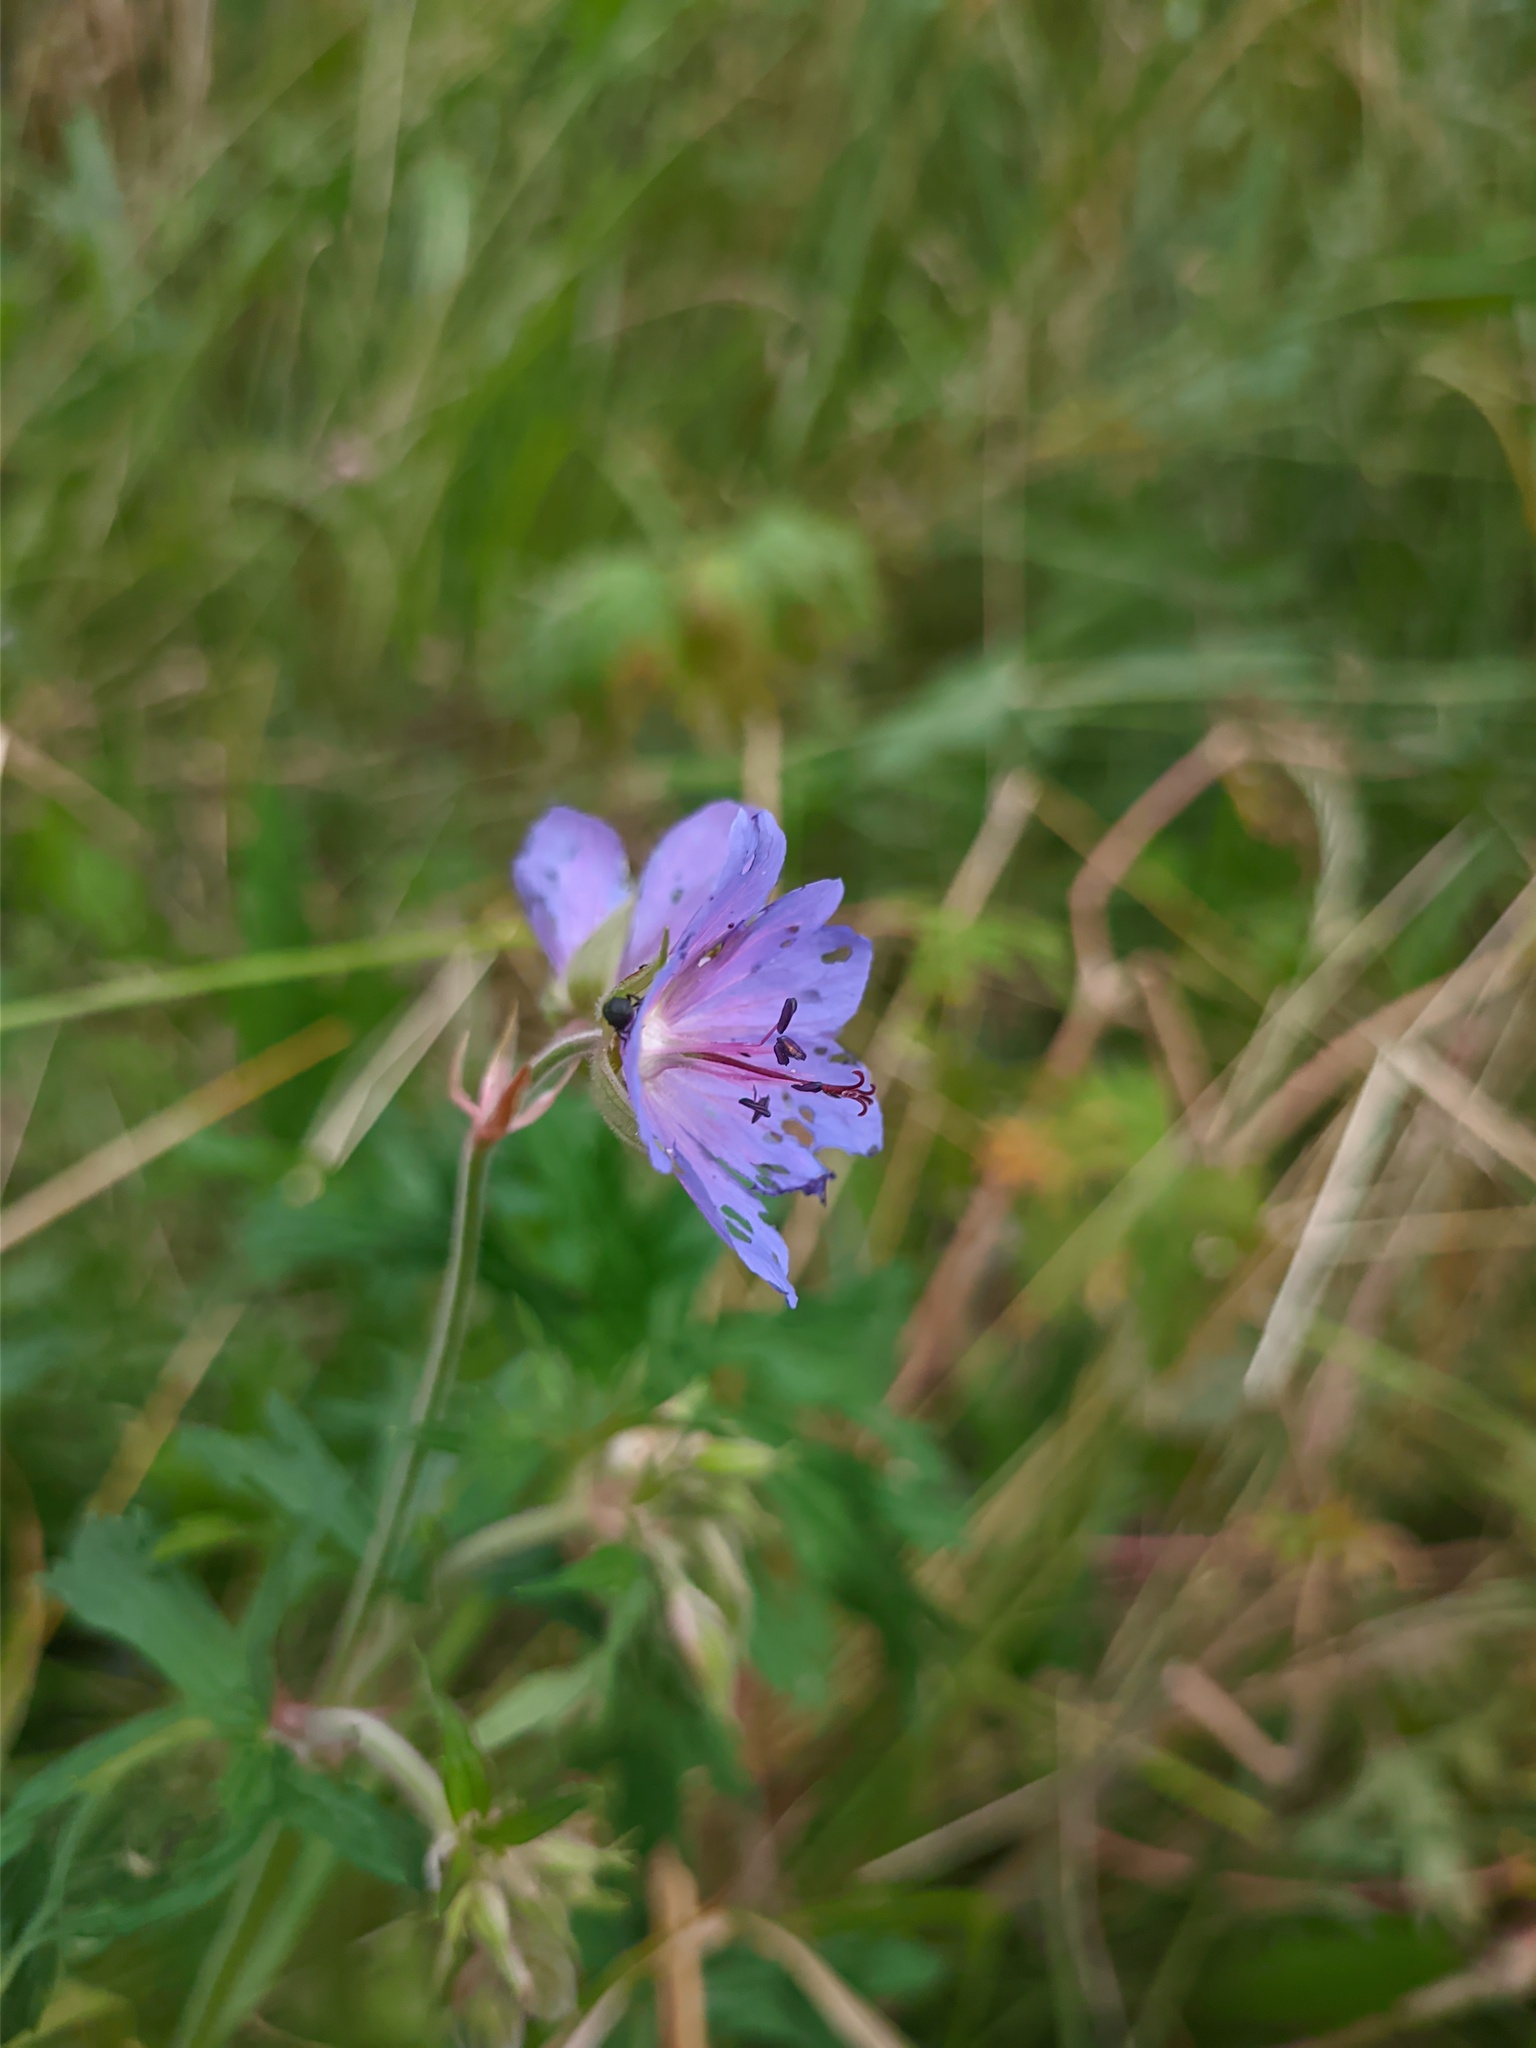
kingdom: Plantae
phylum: Tracheophyta
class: Magnoliopsida
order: Geraniales
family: Geraniaceae
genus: Geranium
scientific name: Geranium pratense
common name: Meadow crane's-bill
